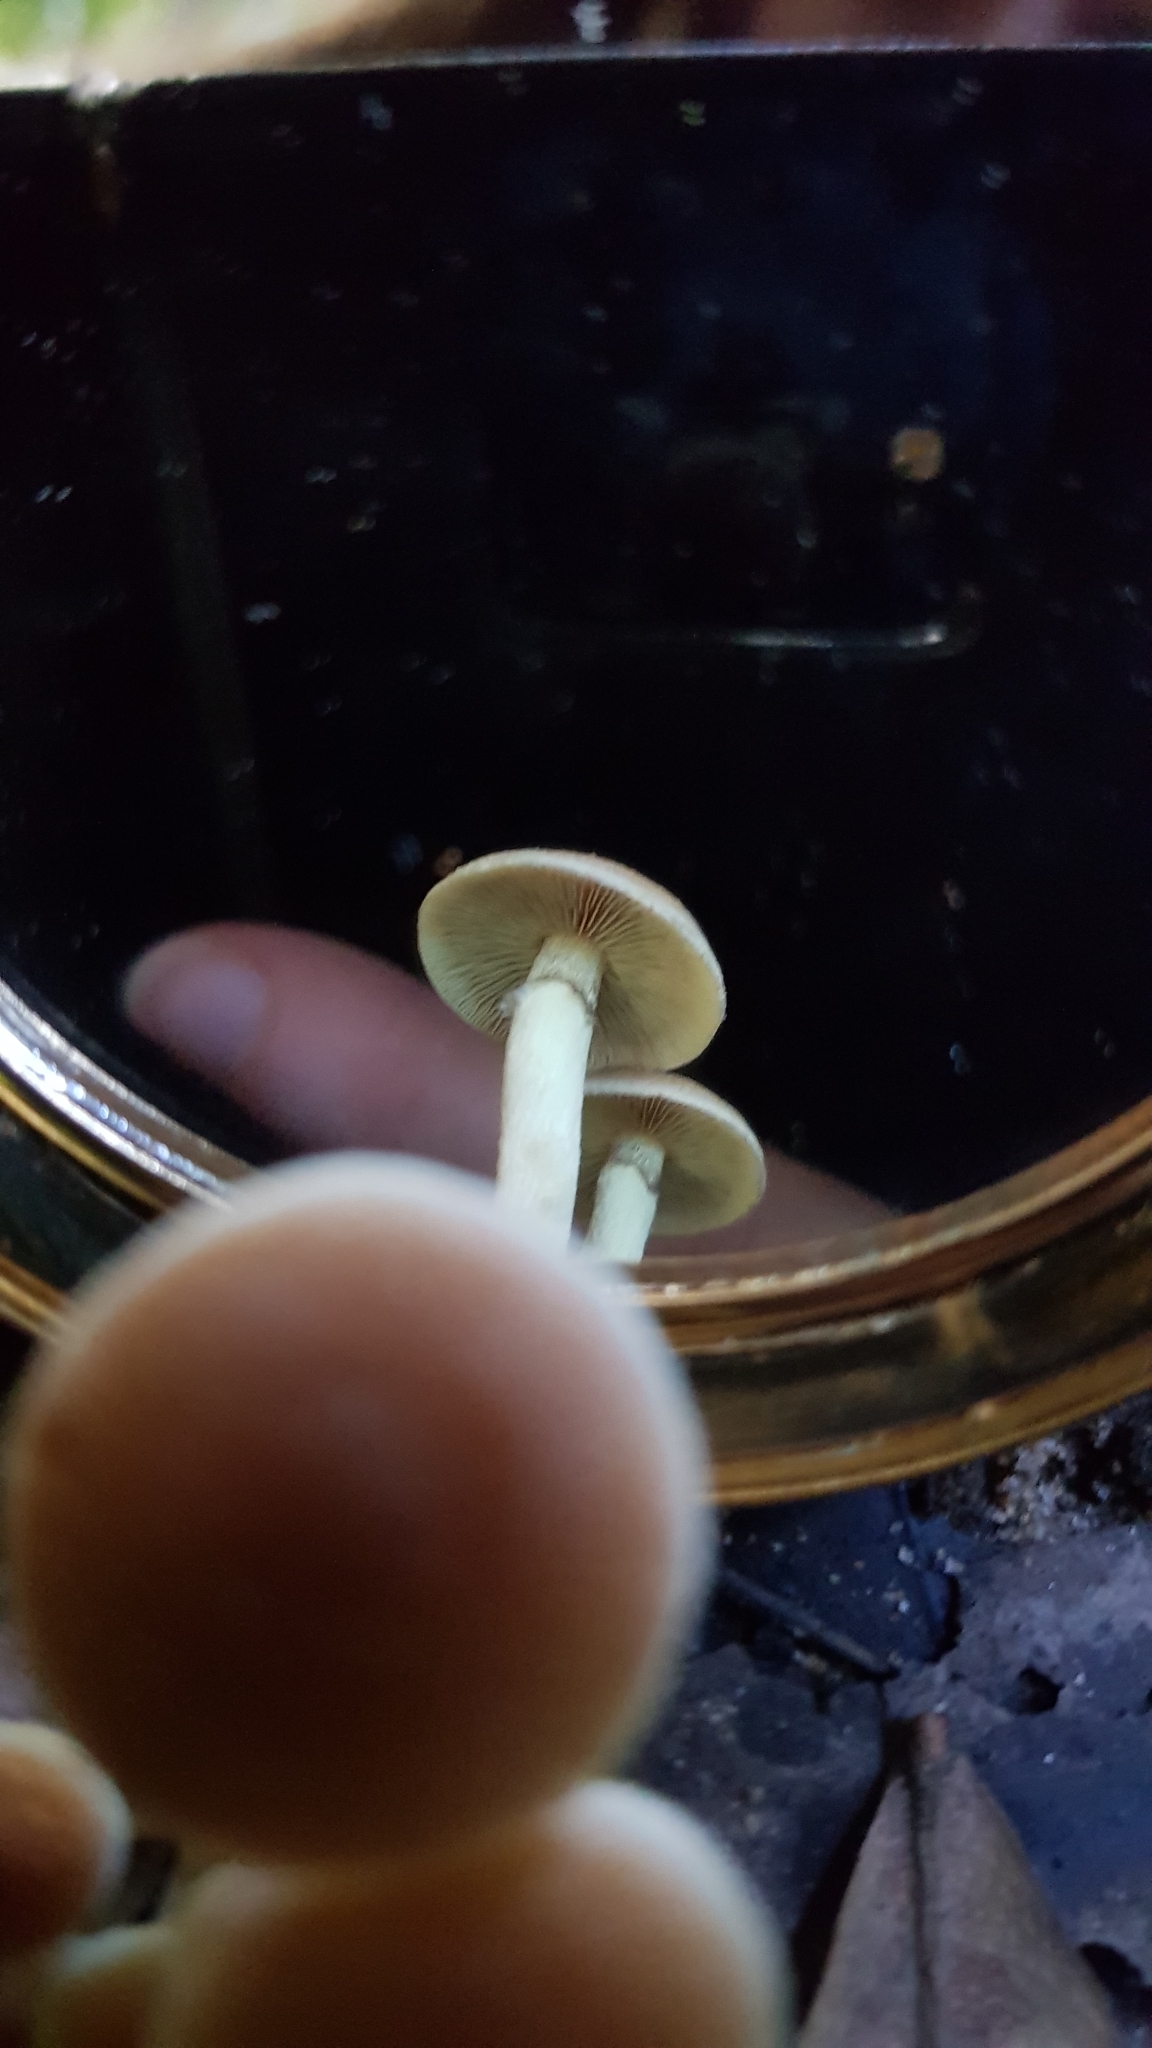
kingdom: Fungi
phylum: Basidiomycota
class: Agaricomycetes
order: Agaricales
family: Strophariaceae
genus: Hypholoma
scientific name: Hypholoma fasciculare
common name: Sulphur tuft
